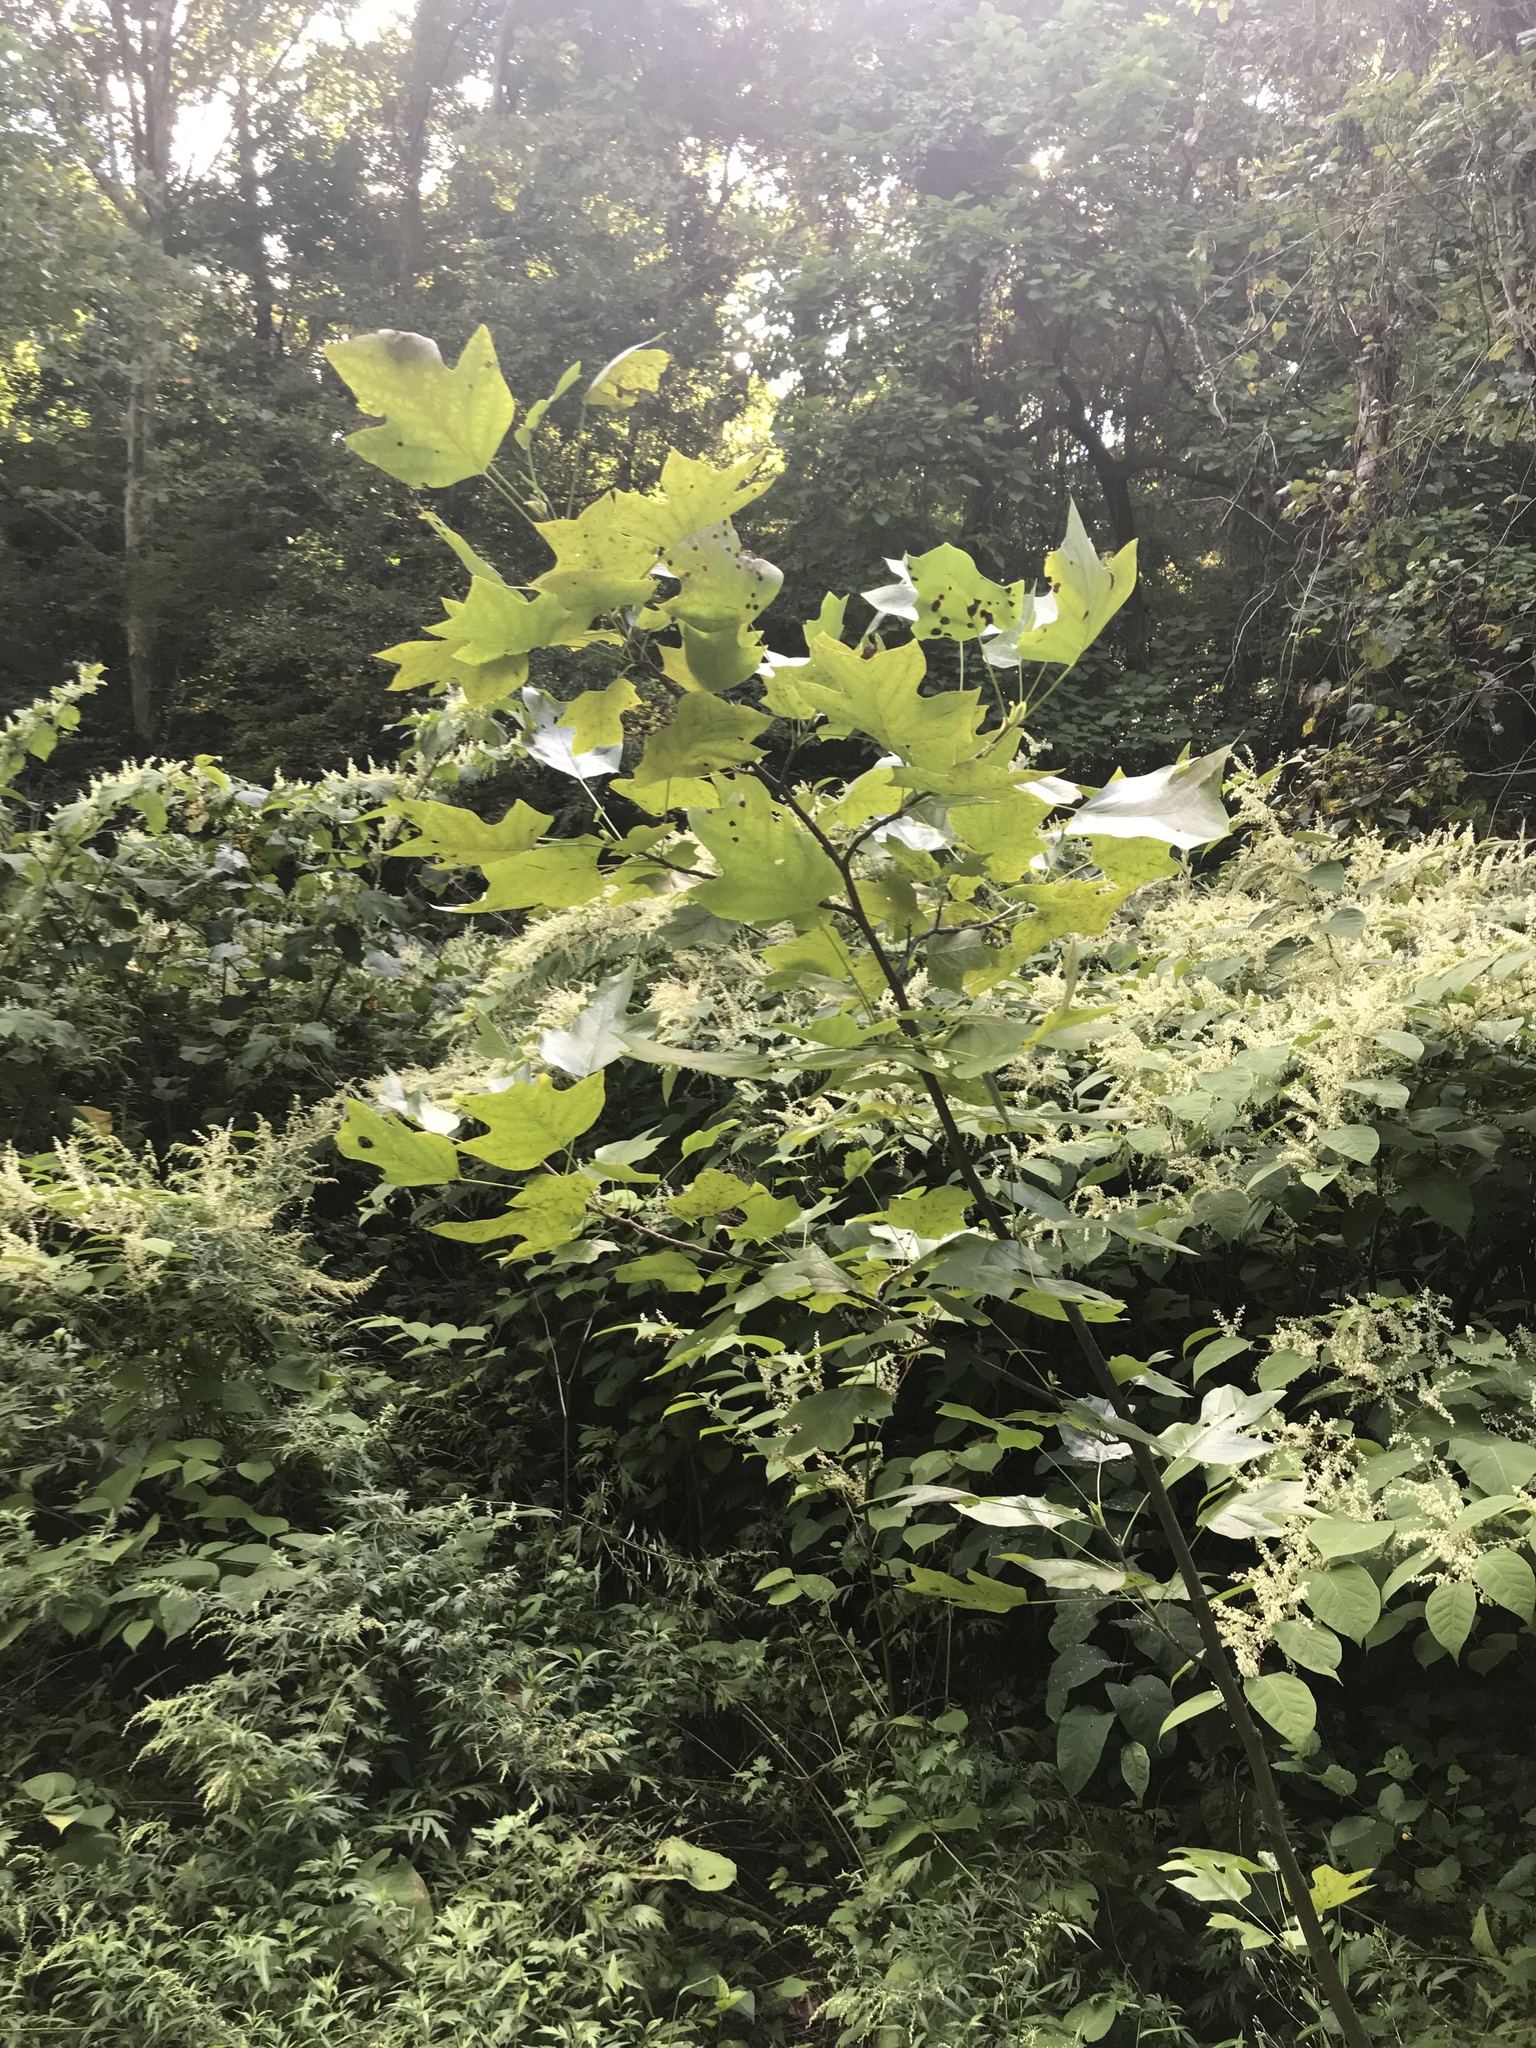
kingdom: Plantae
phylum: Tracheophyta
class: Magnoliopsida
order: Magnoliales
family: Magnoliaceae
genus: Liriodendron
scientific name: Liriodendron tulipifera
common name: Tulip tree
